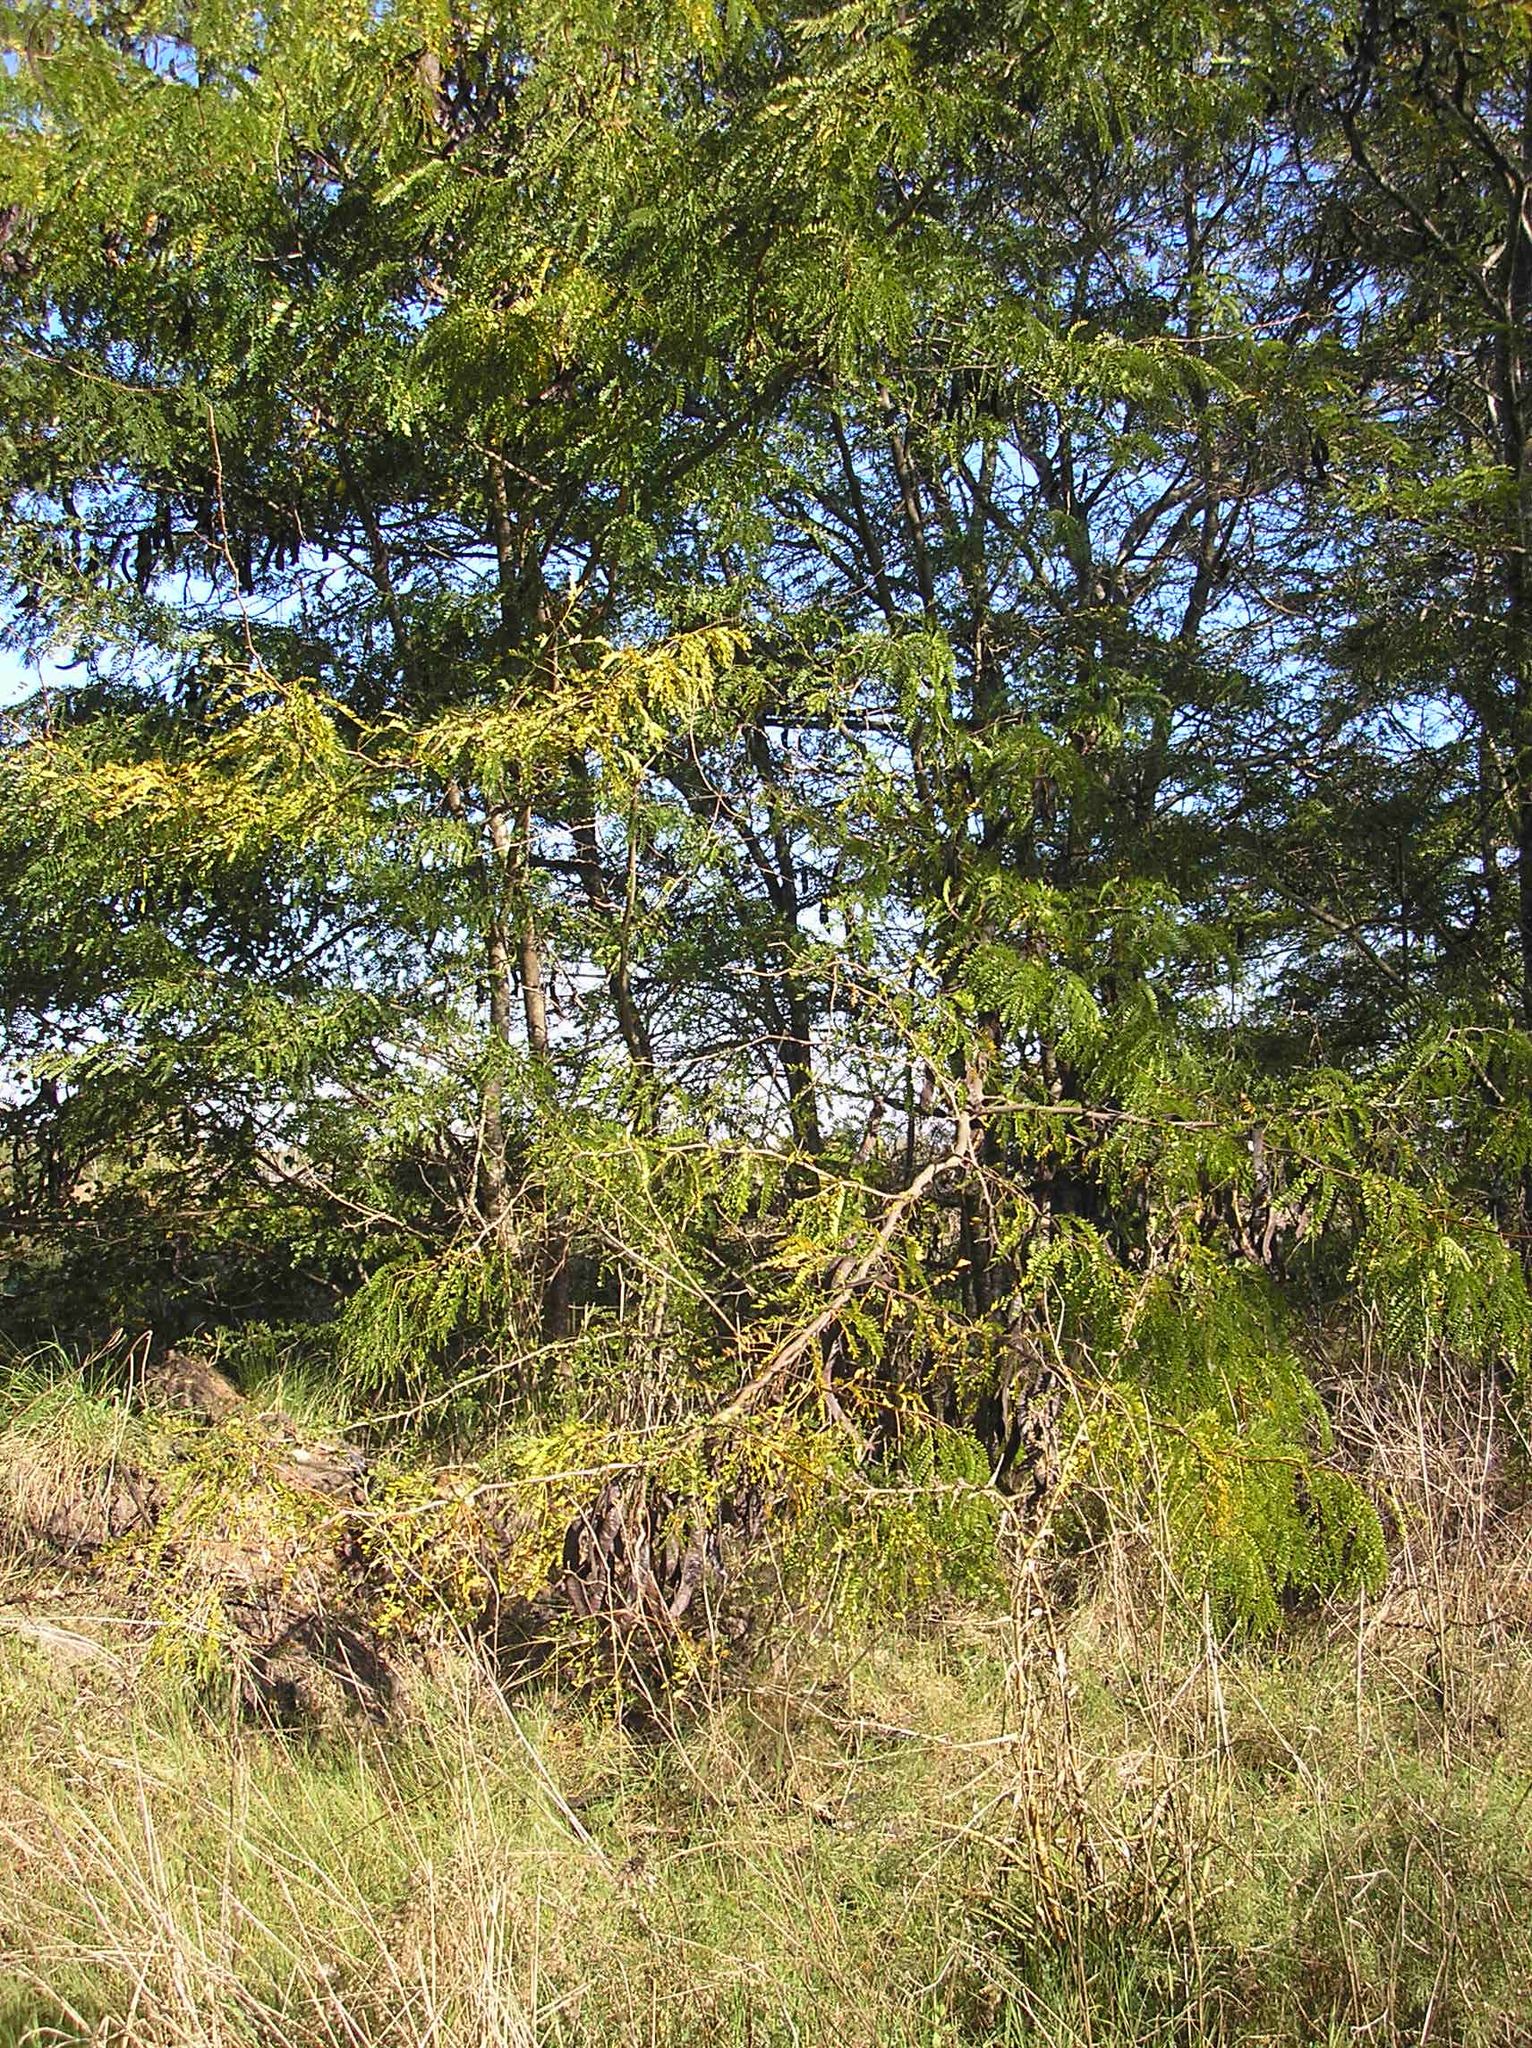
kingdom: Plantae
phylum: Tracheophyta
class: Magnoliopsida
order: Fabales
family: Fabaceae
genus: Gleditsia
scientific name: Gleditsia triacanthos
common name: Common honeylocust
